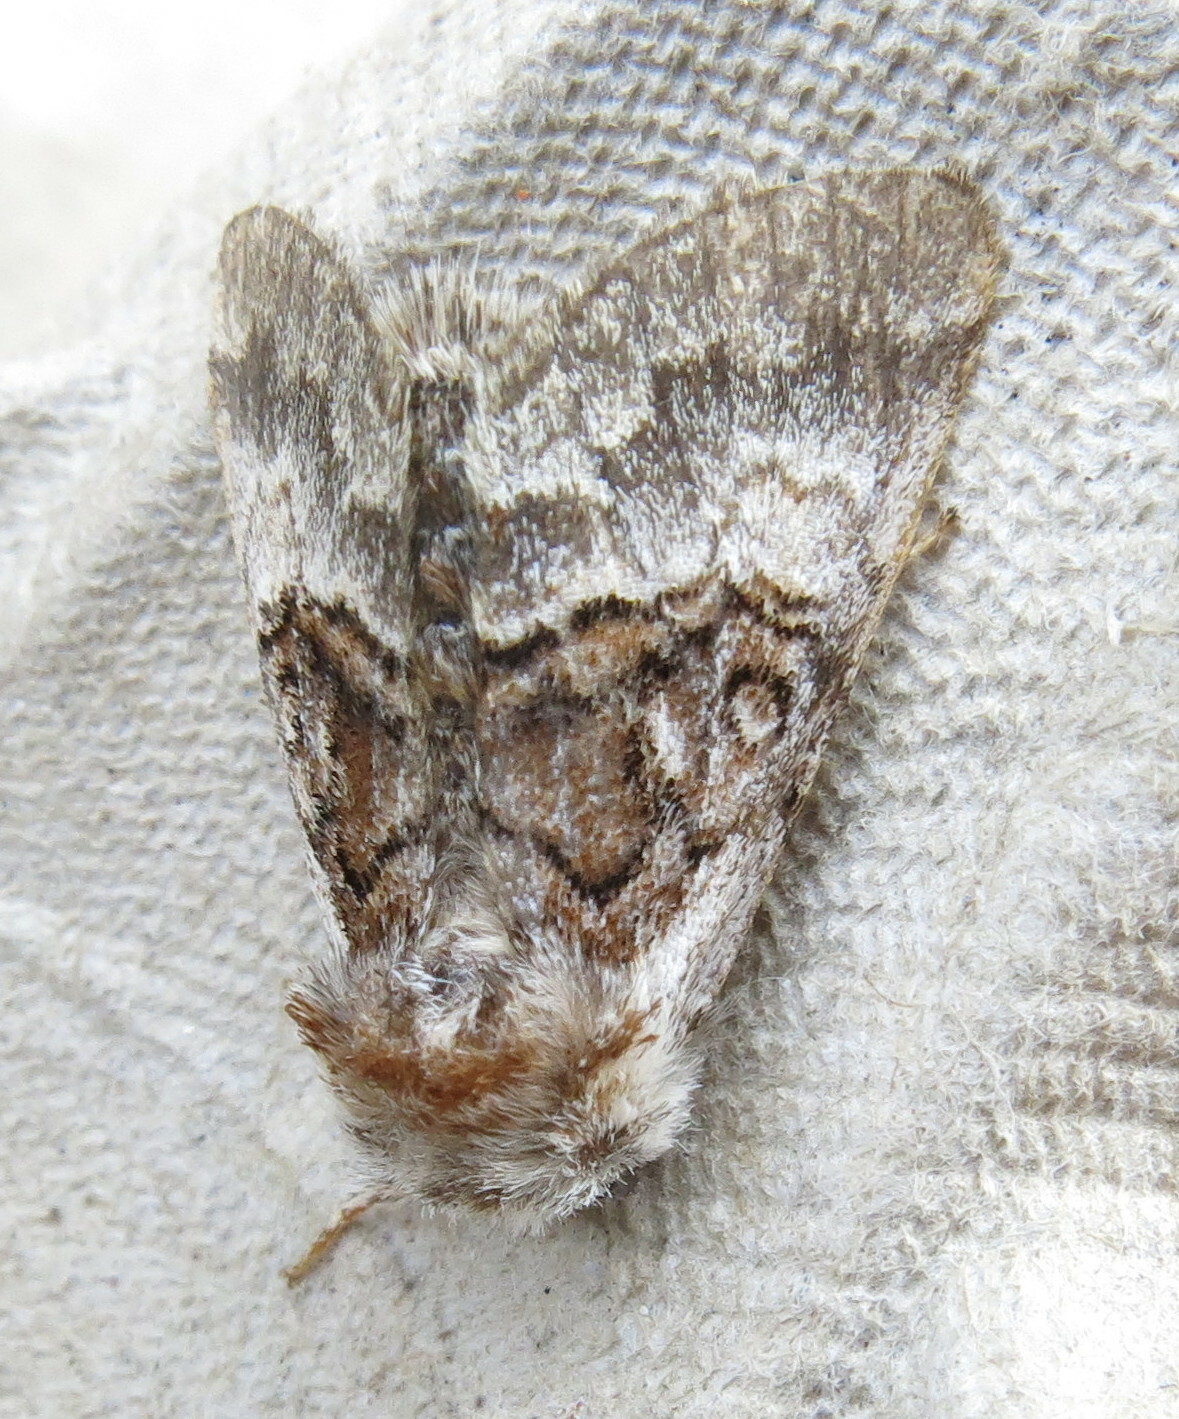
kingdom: Animalia
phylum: Arthropoda
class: Insecta
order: Lepidoptera
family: Noctuidae
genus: Colocasia
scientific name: Colocasia coryli
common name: Nut-tree tussock
